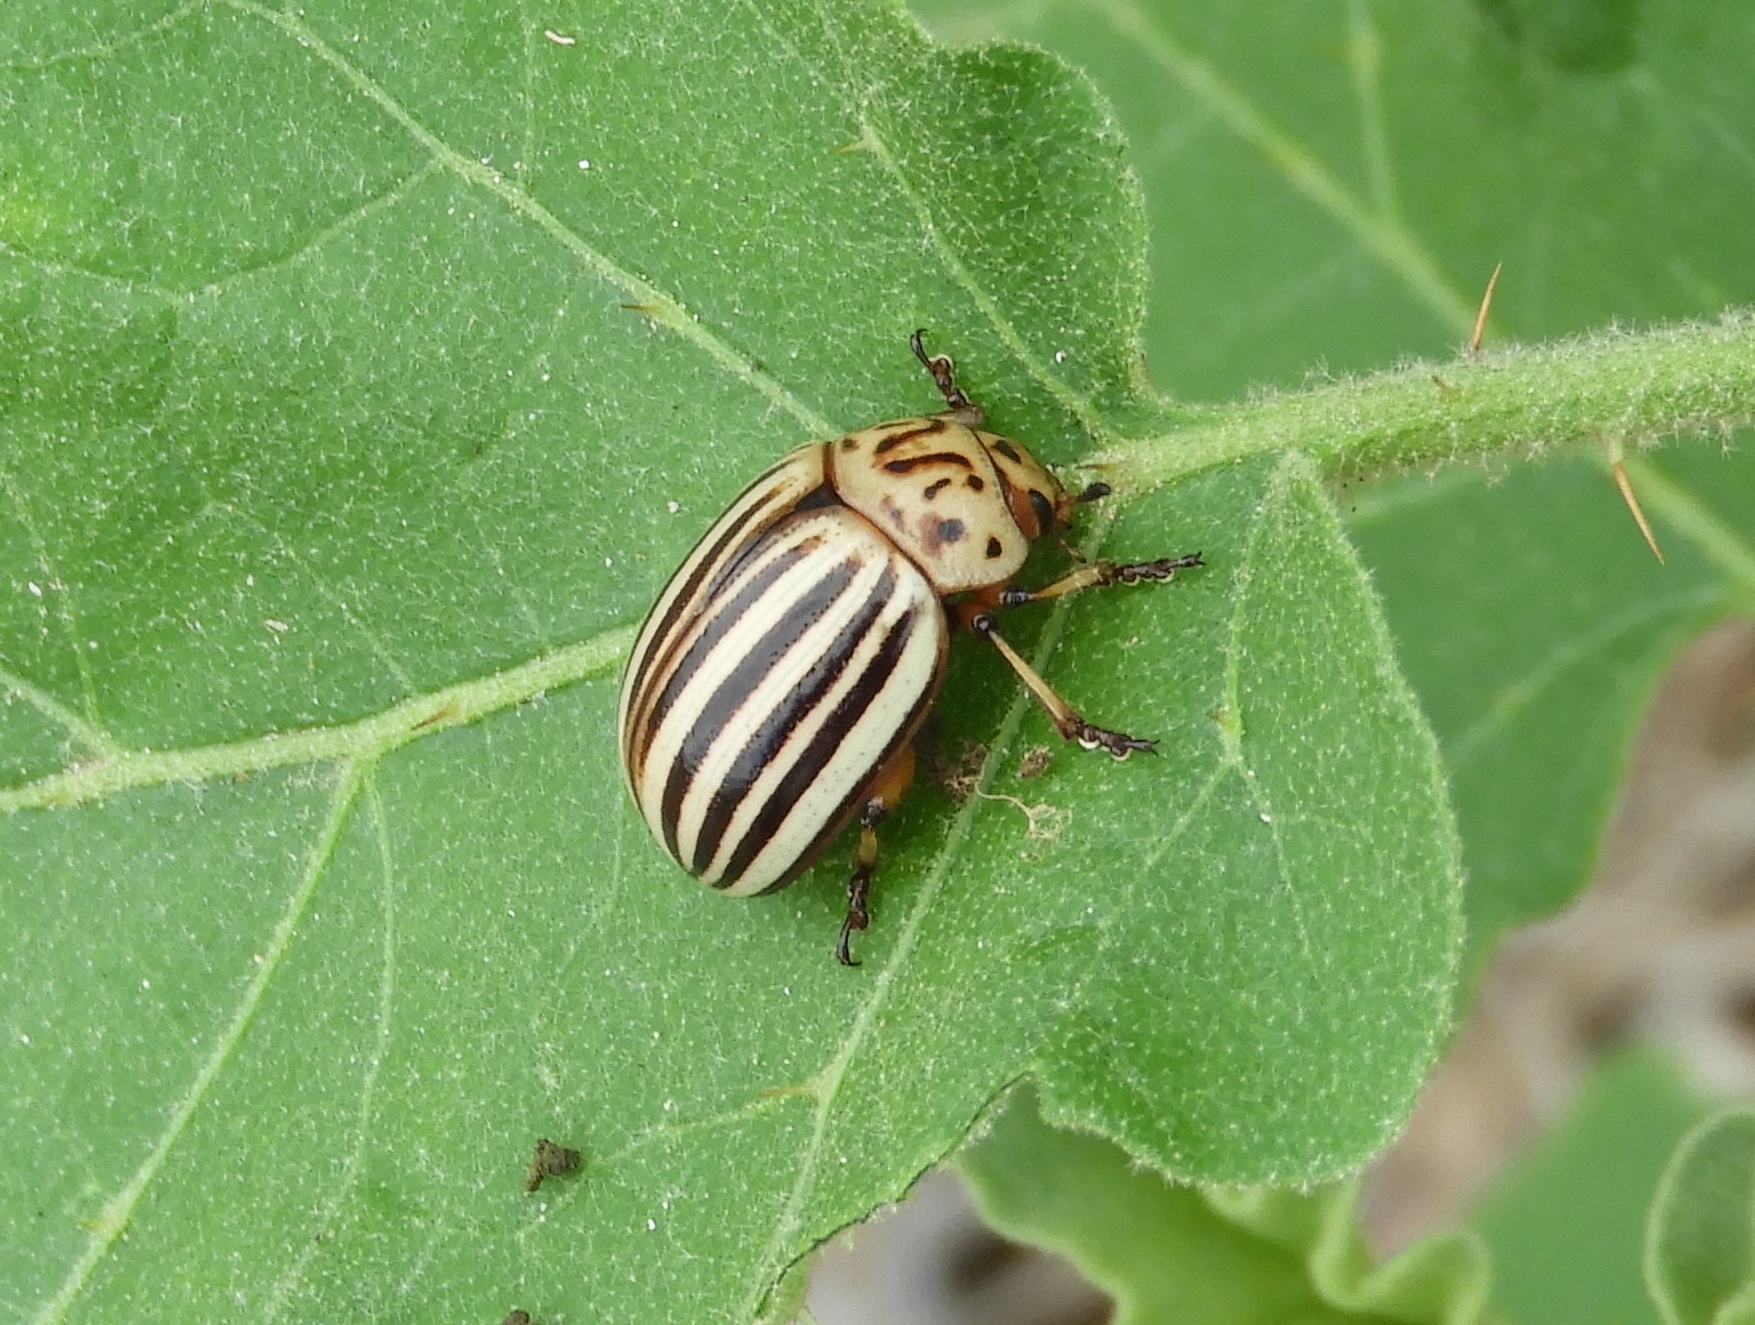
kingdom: Animalia
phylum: Arthropoda
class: Insecta
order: Coleoptera
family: Chrysomelidae
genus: Leptinotarsa
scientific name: Leptinotarsa decemlineata
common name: Colorado potato beetle
